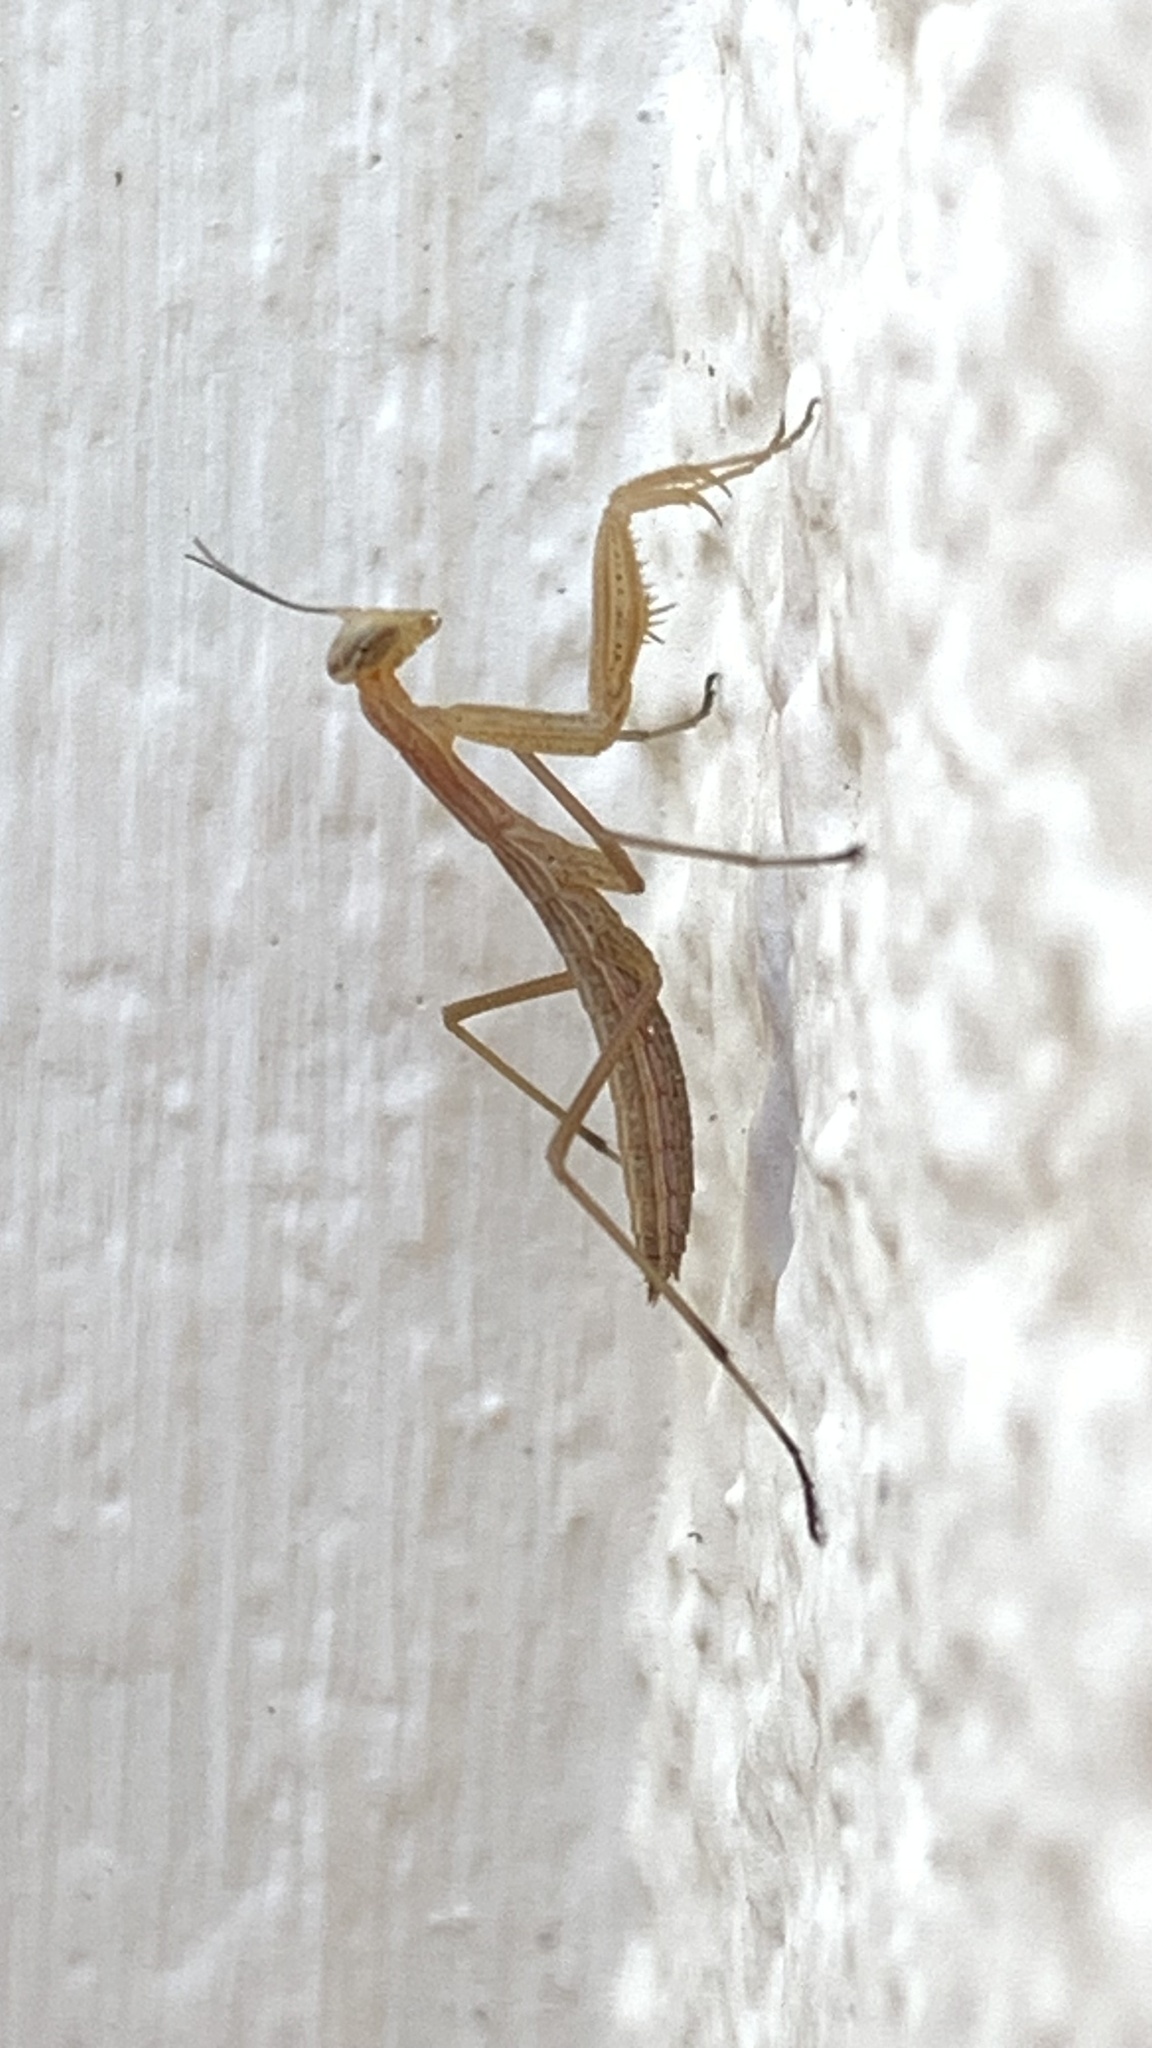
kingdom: Animalia
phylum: Arthropoda
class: Insecta
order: Mantodea
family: Mantidae
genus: Mantis
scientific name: Mantis religiosa
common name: Praying mantis
